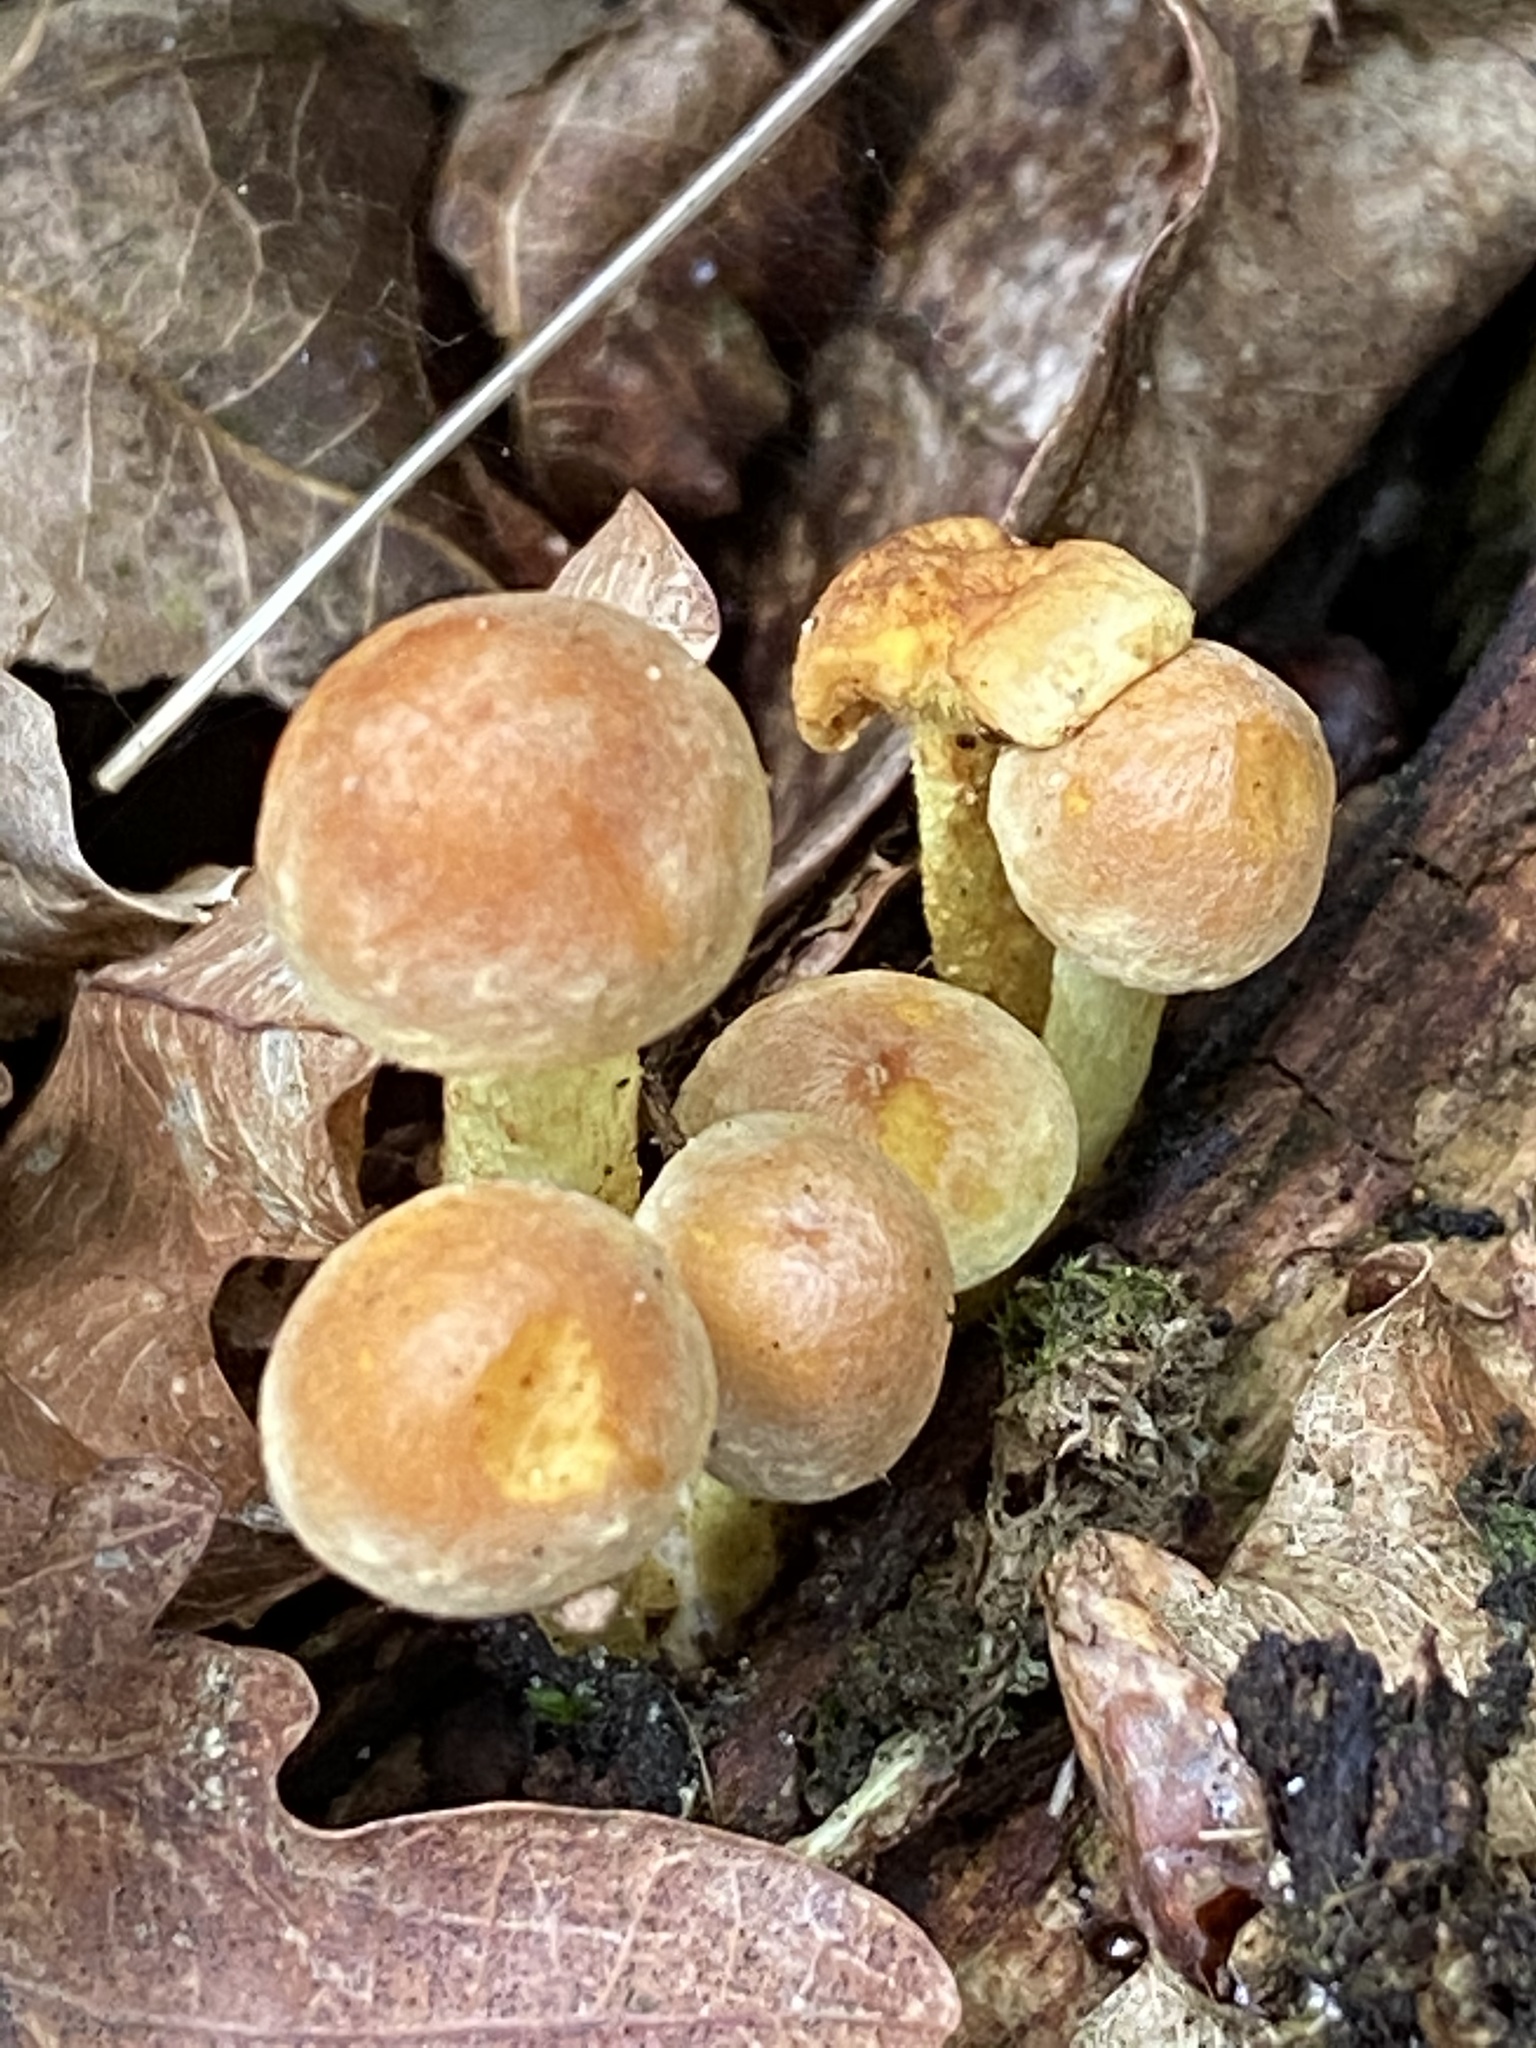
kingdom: Fungi
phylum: Basidiomycota
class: Agaricomycetes
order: Agaricales
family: Strophariaceae
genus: Hypholoma
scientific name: Hypholoma fasciculare
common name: Sulphur tuft
